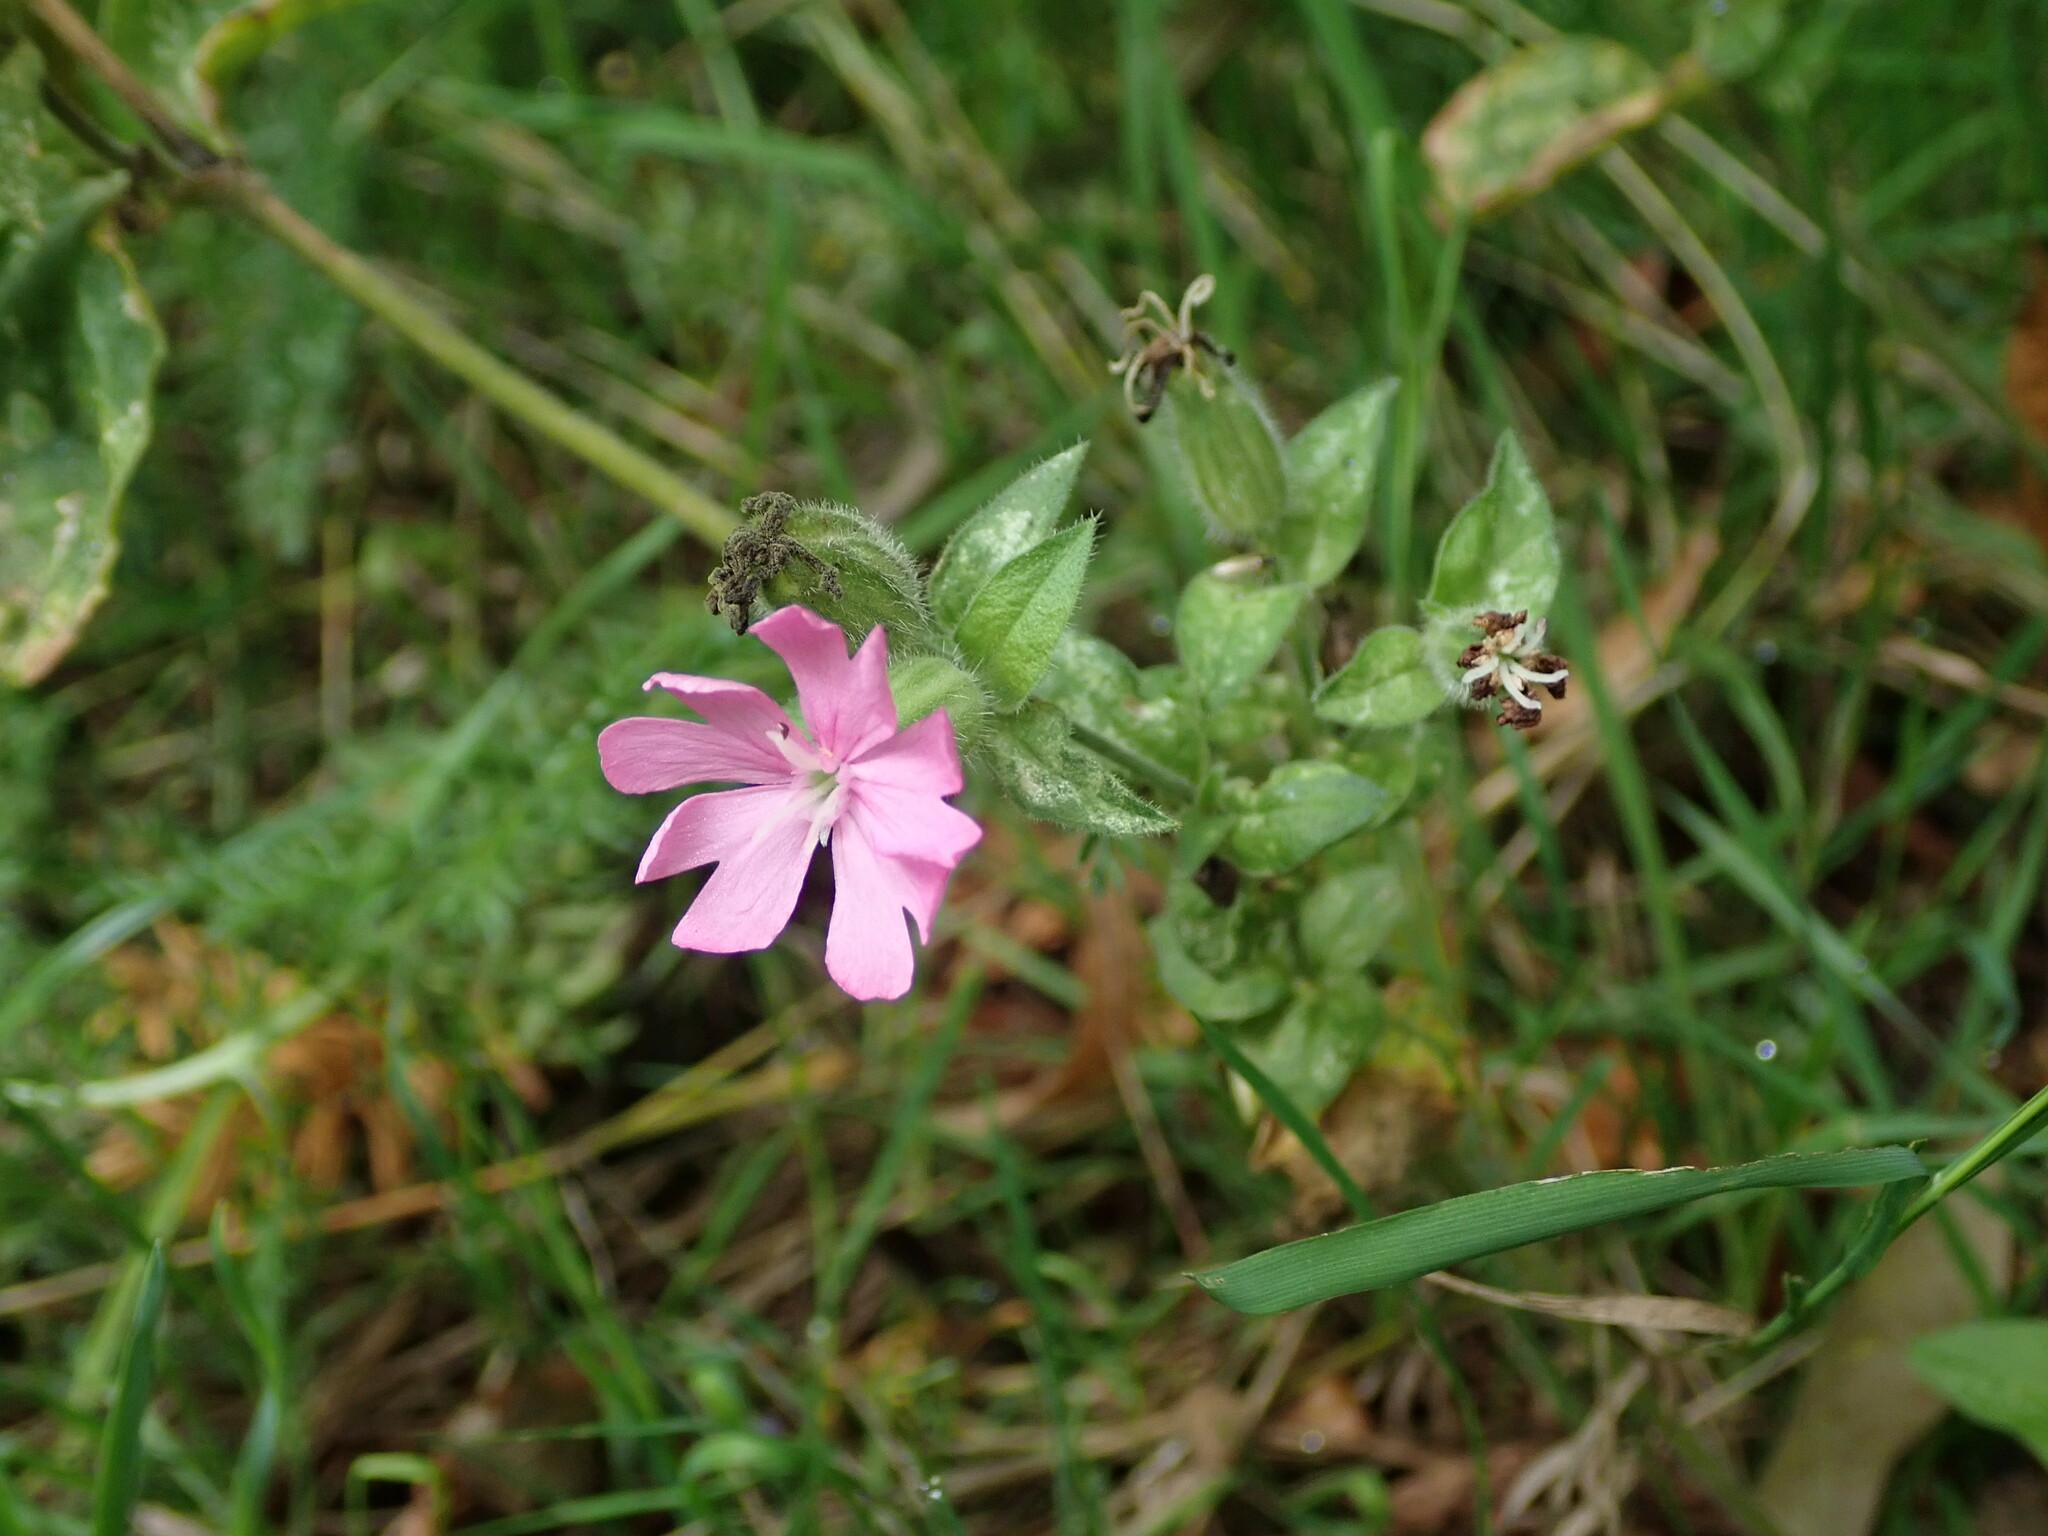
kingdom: Plantae
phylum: Tracheophyta
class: Magnoliopsida
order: Caryophyllales
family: Caryophyllaceae
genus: Silene
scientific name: Silene dioica
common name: Red campion
